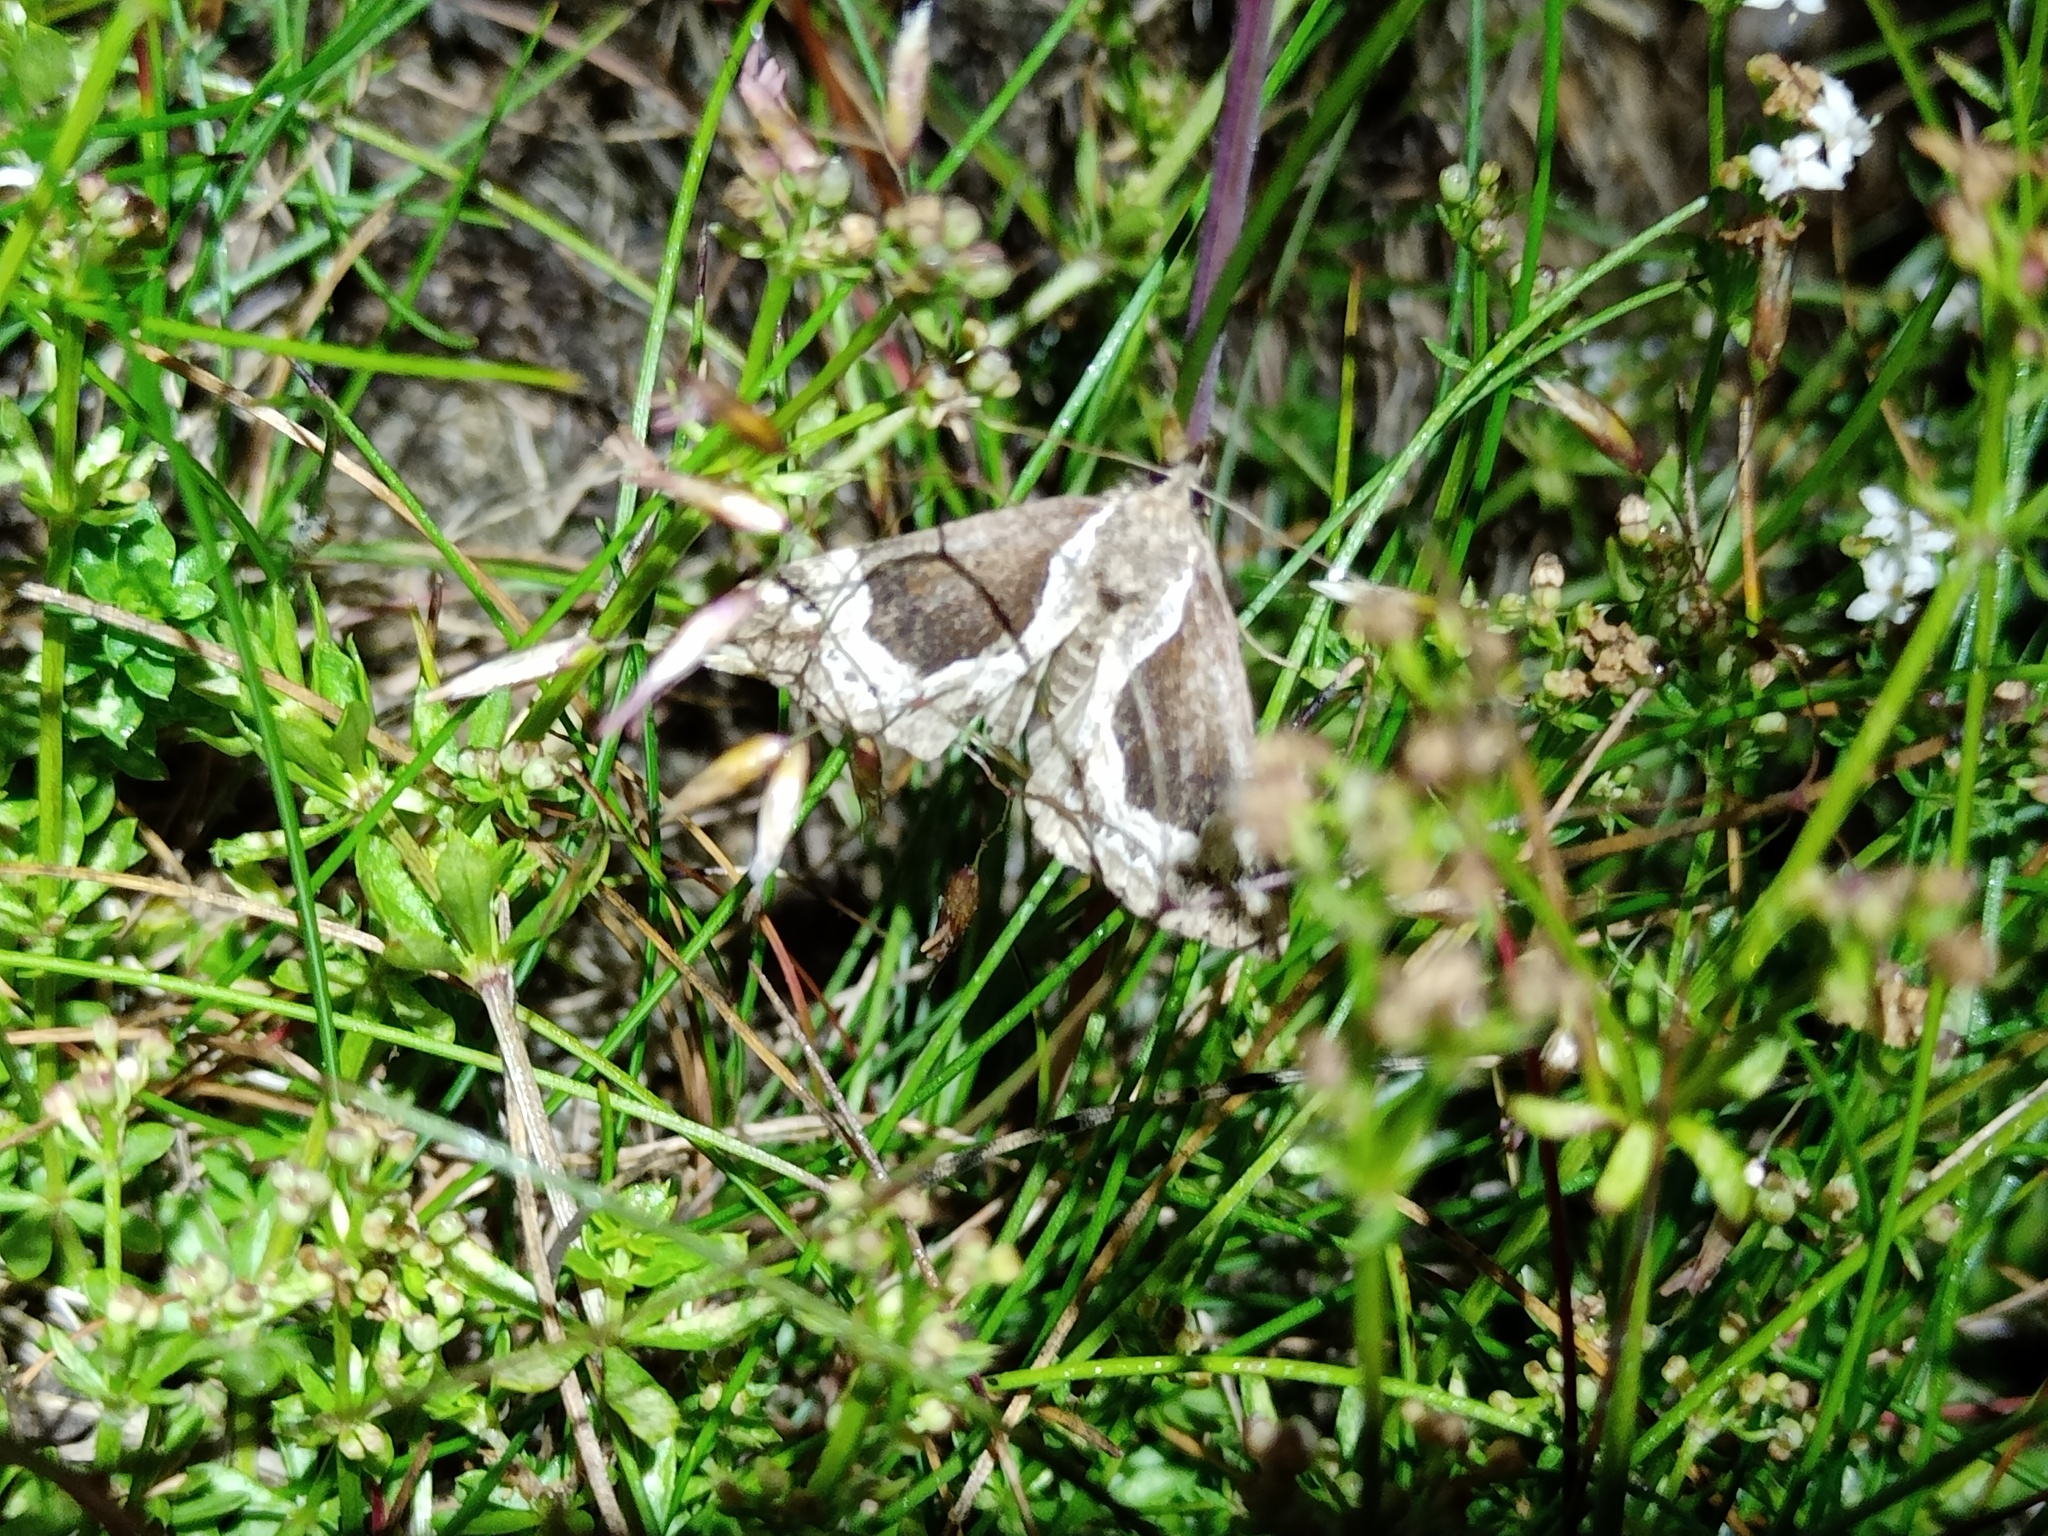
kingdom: Animalia
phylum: Arthropoda
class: Insecta
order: Lepidoptera
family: Erebidae
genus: Hypena
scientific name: Hypena crassalis
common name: Beautiful snout
